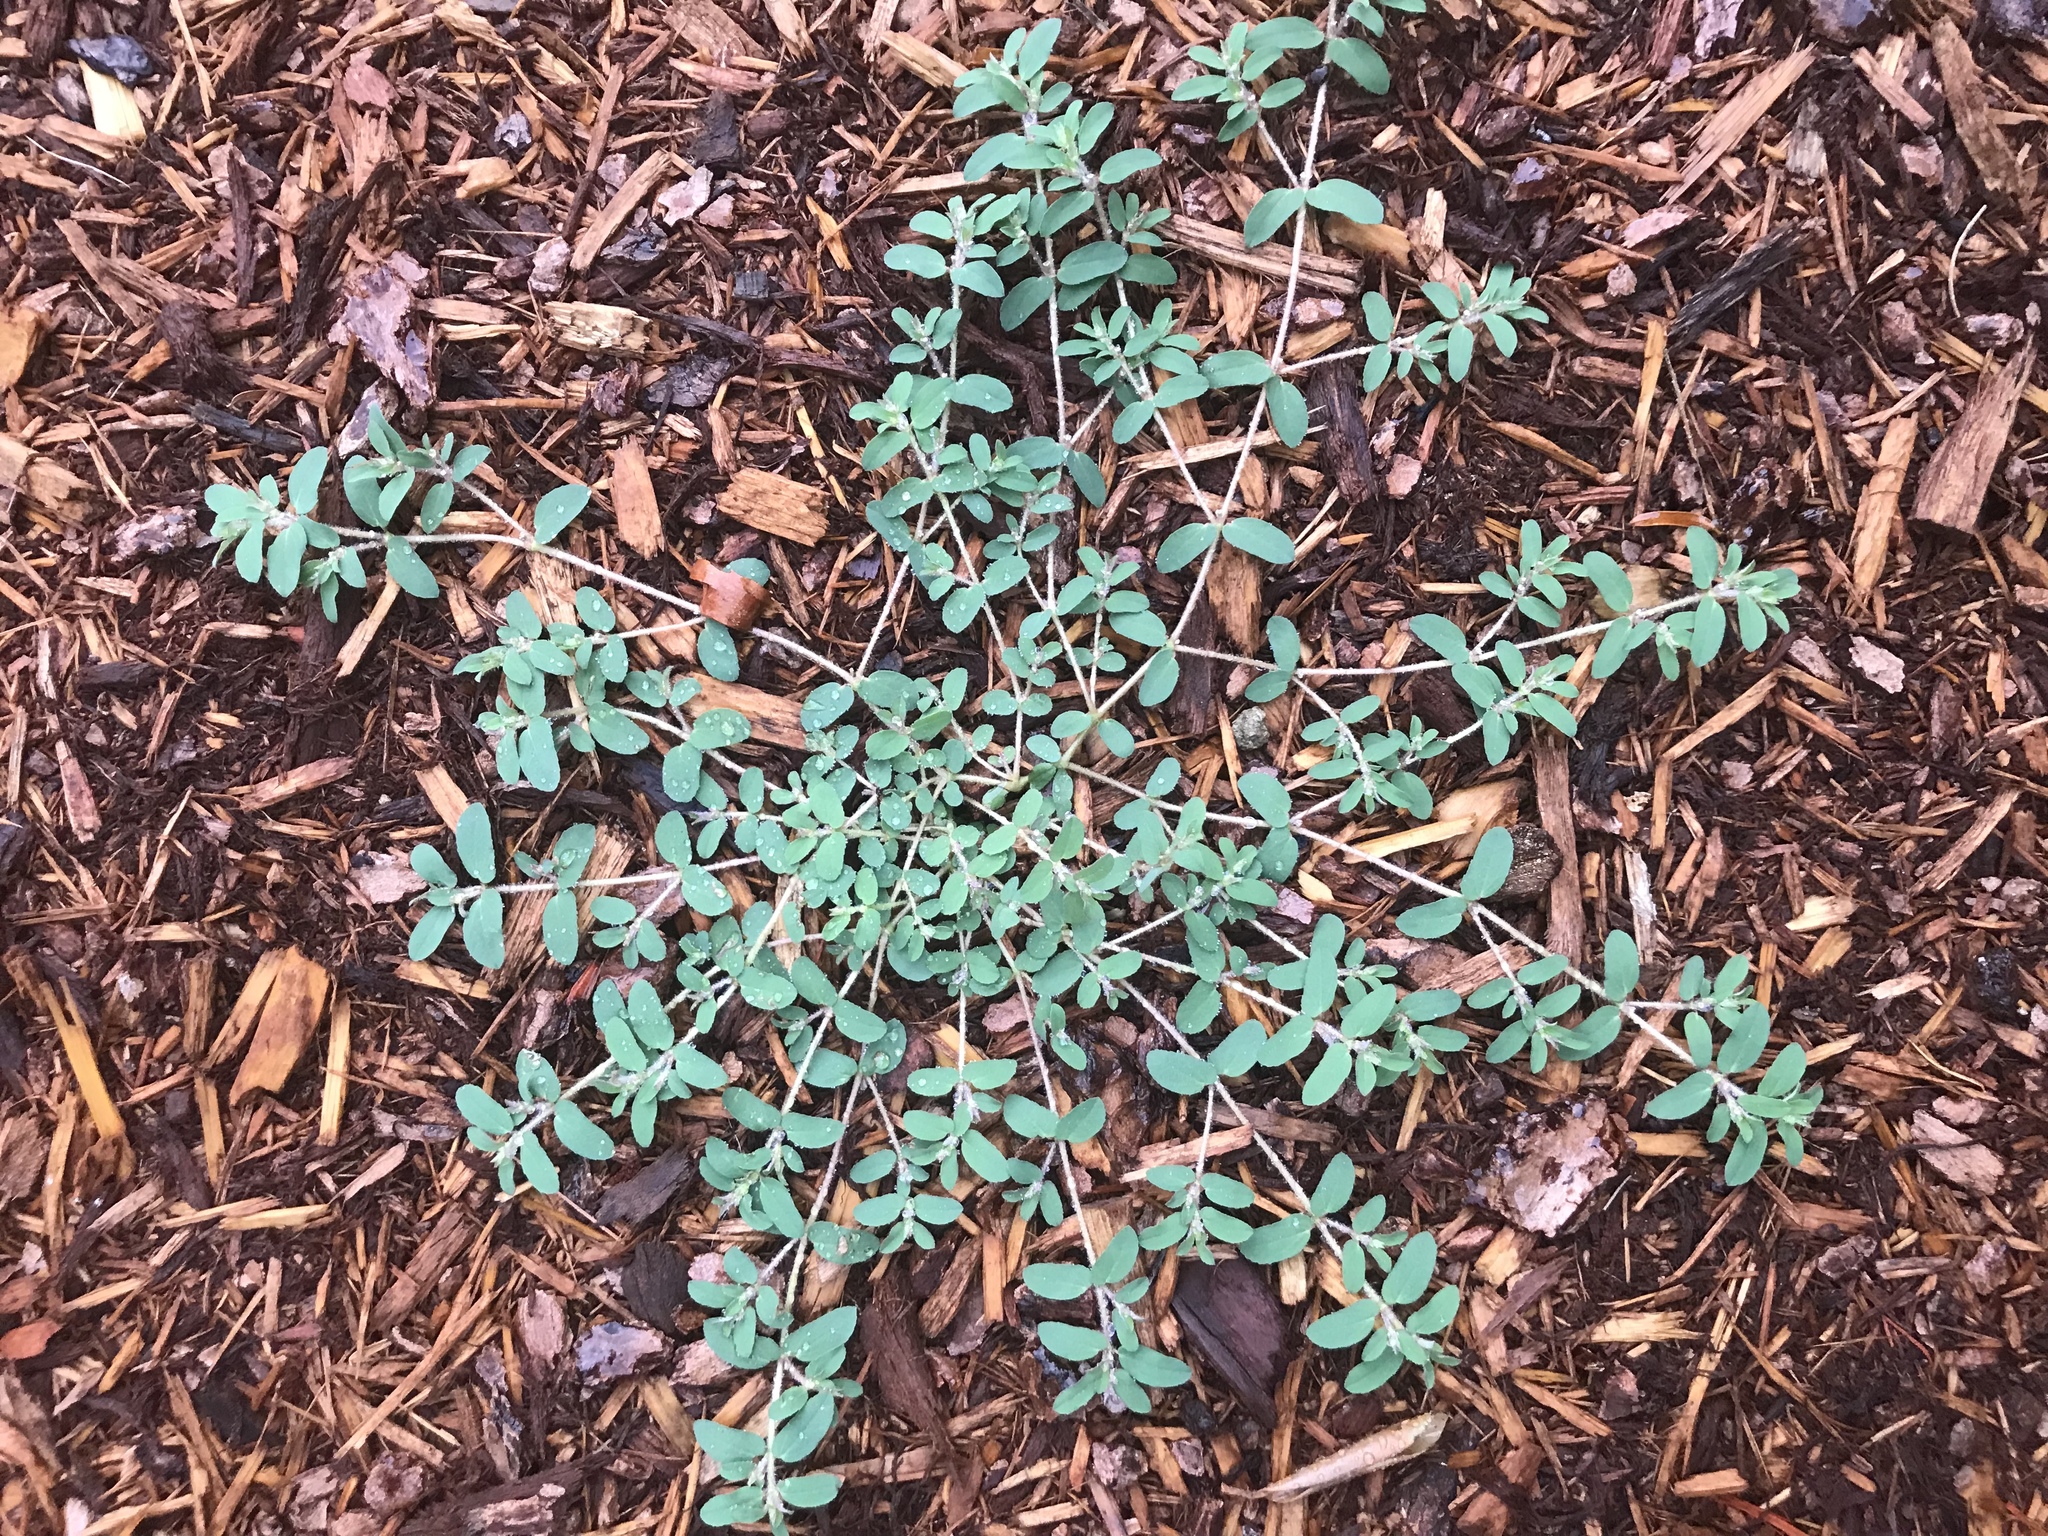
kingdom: Plantae
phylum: Tracheophyta
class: Magnoliopsida
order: Malpighiales
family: Euphorbiaceae
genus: Euphorbia
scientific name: Euphorbia maculata
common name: Spotted spurge
